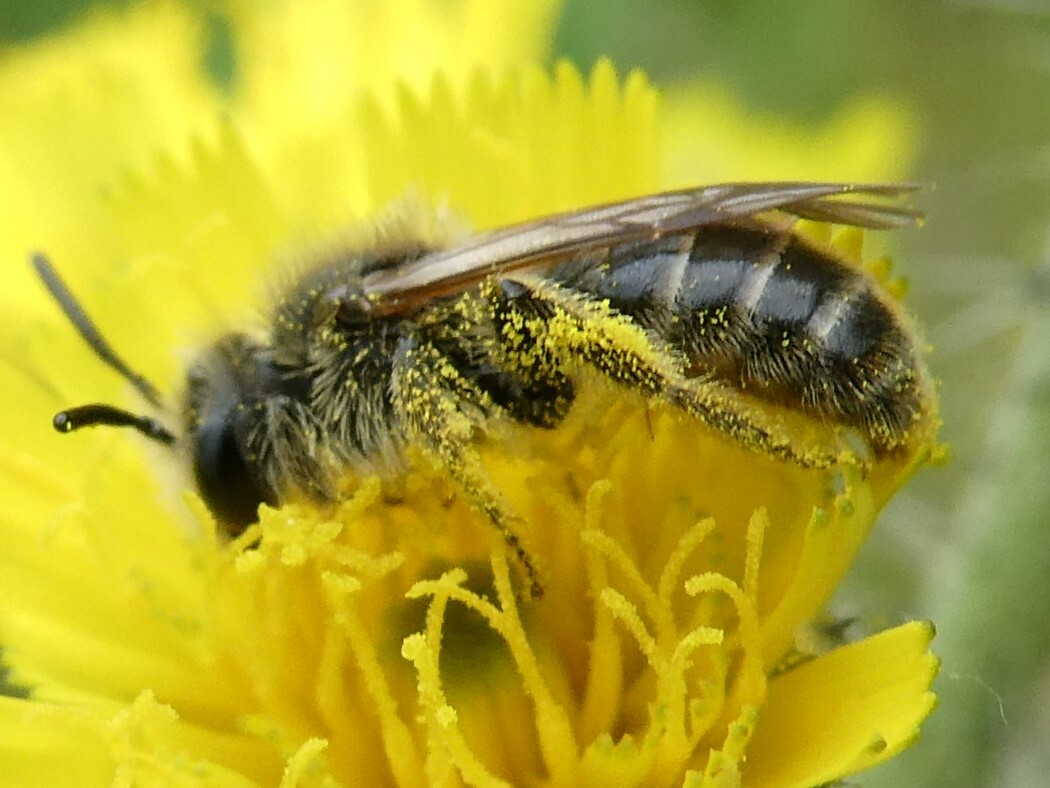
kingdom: Animalia
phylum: Arthropoda
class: Insecta
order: Hymenoptera
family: Andrenidae
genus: Andrena
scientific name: Andrena krigiana
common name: Dwarf-dandelion mining bee
